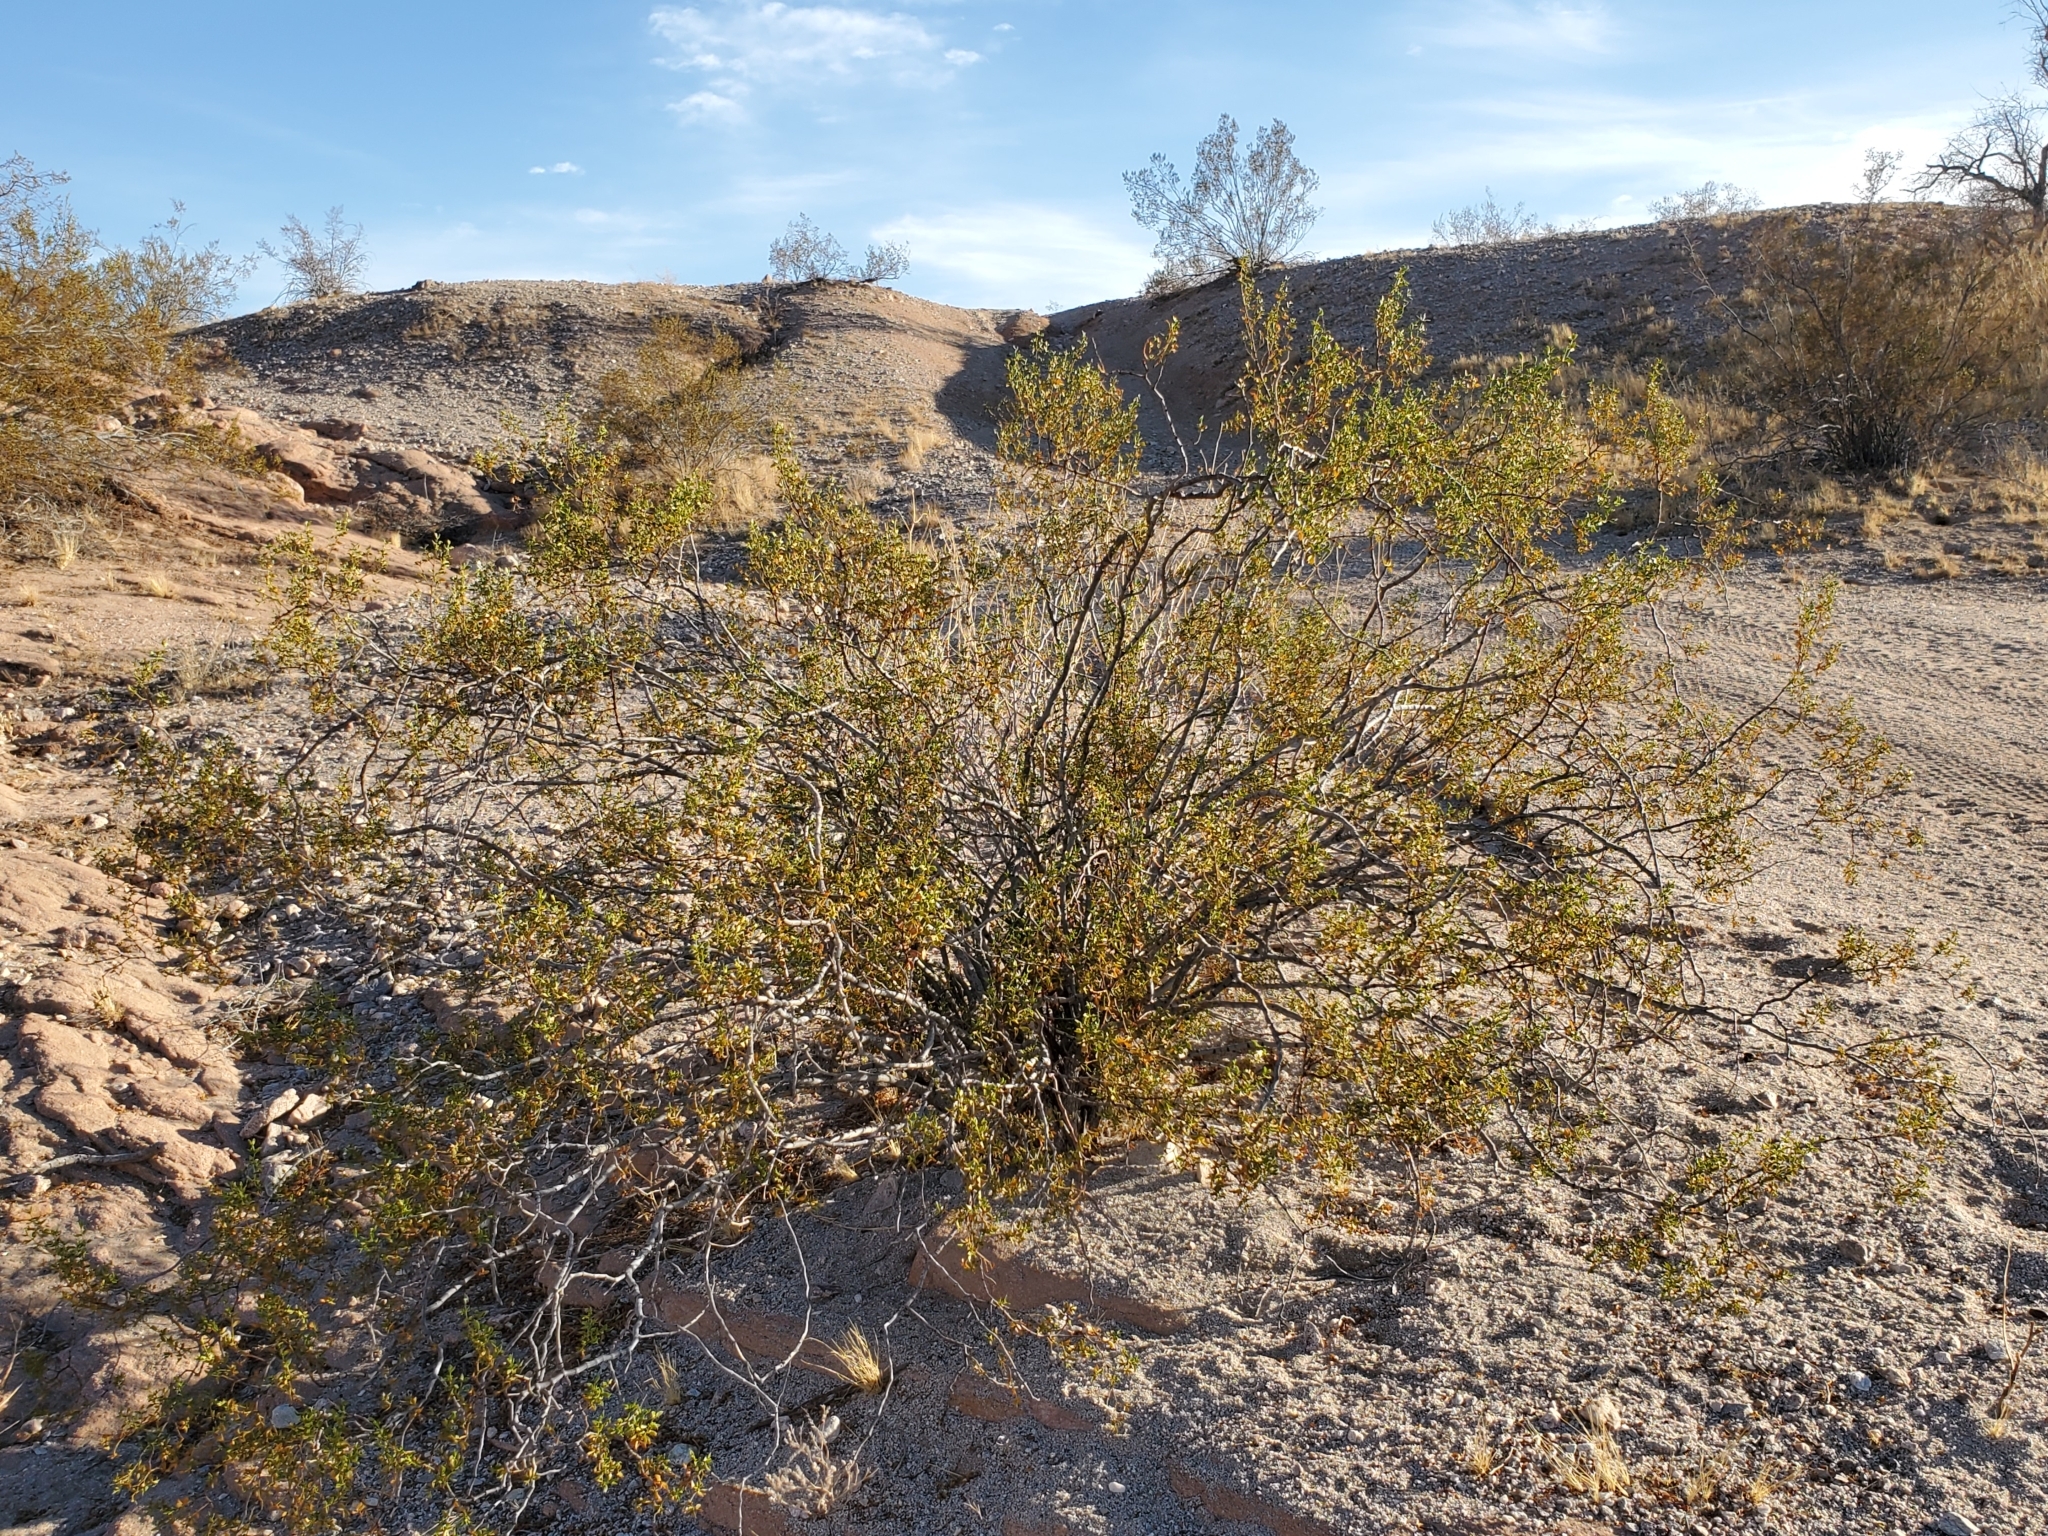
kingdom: Plantae
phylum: Tracheophyta
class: Magnoliopsida
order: Zygophyllales
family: Zygophyllaceae
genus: Larrea
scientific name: Larrea tridentata
